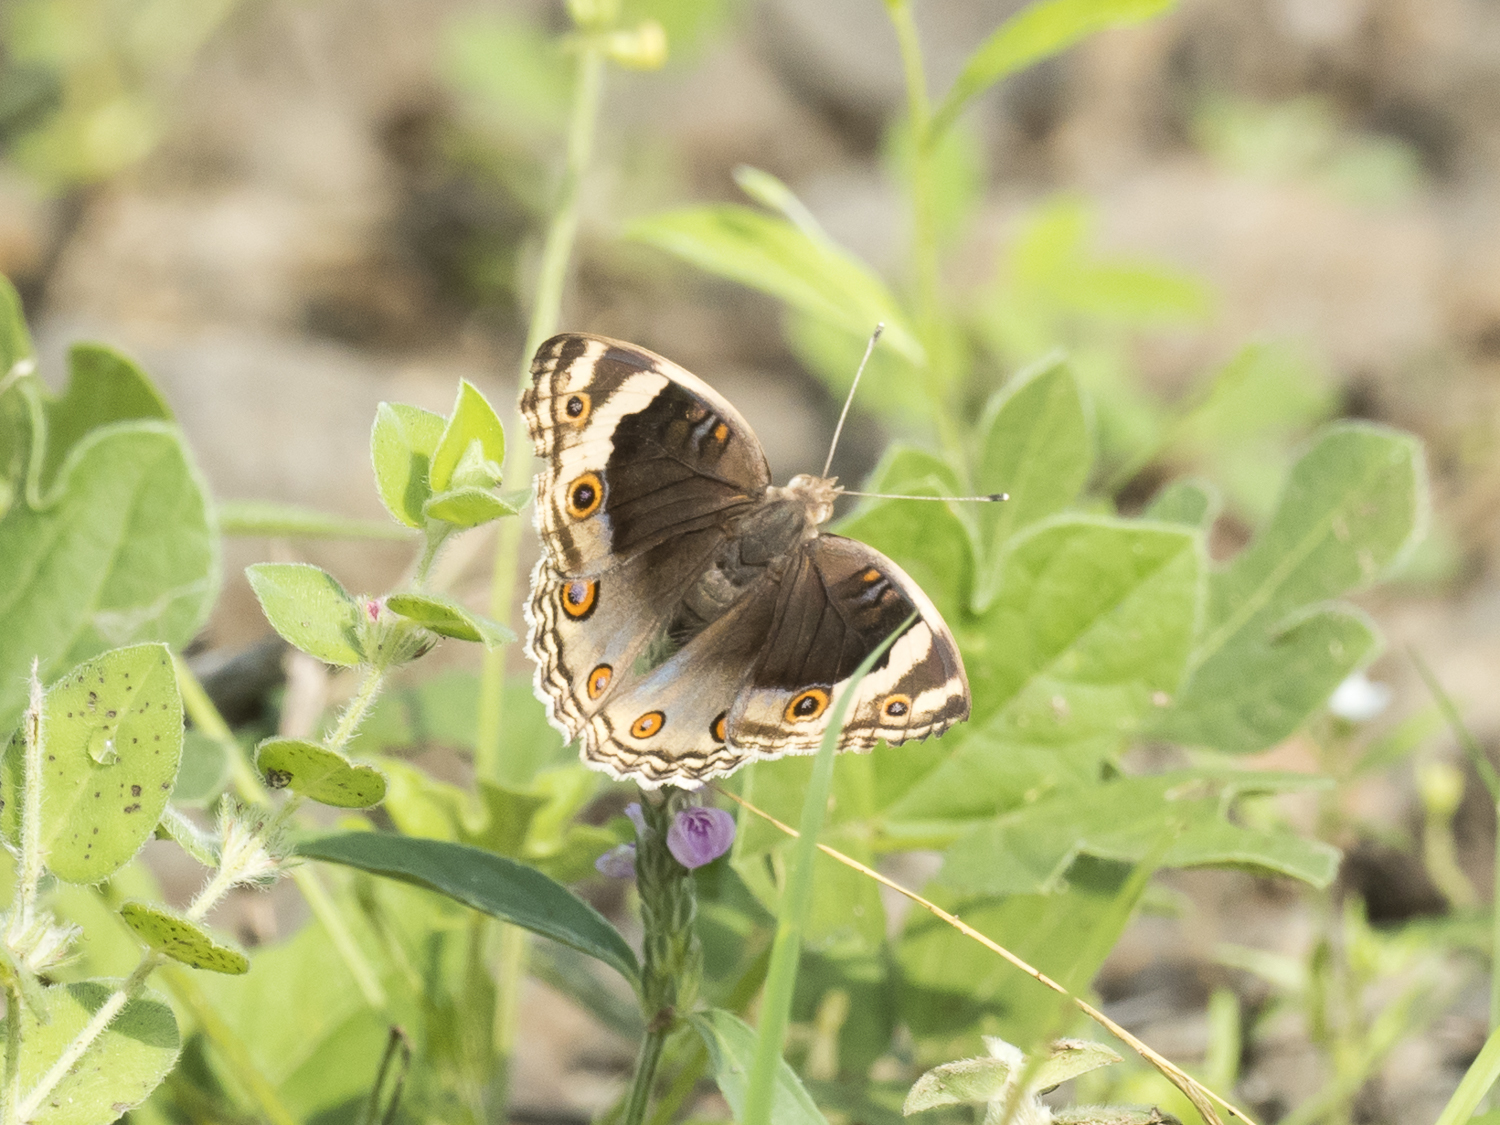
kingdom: Animalia
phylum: Arthropoda
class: Insecta
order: Lepidoptera
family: Nymphalidae
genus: Junonia
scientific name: Junonia orithya
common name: Blue pansy
